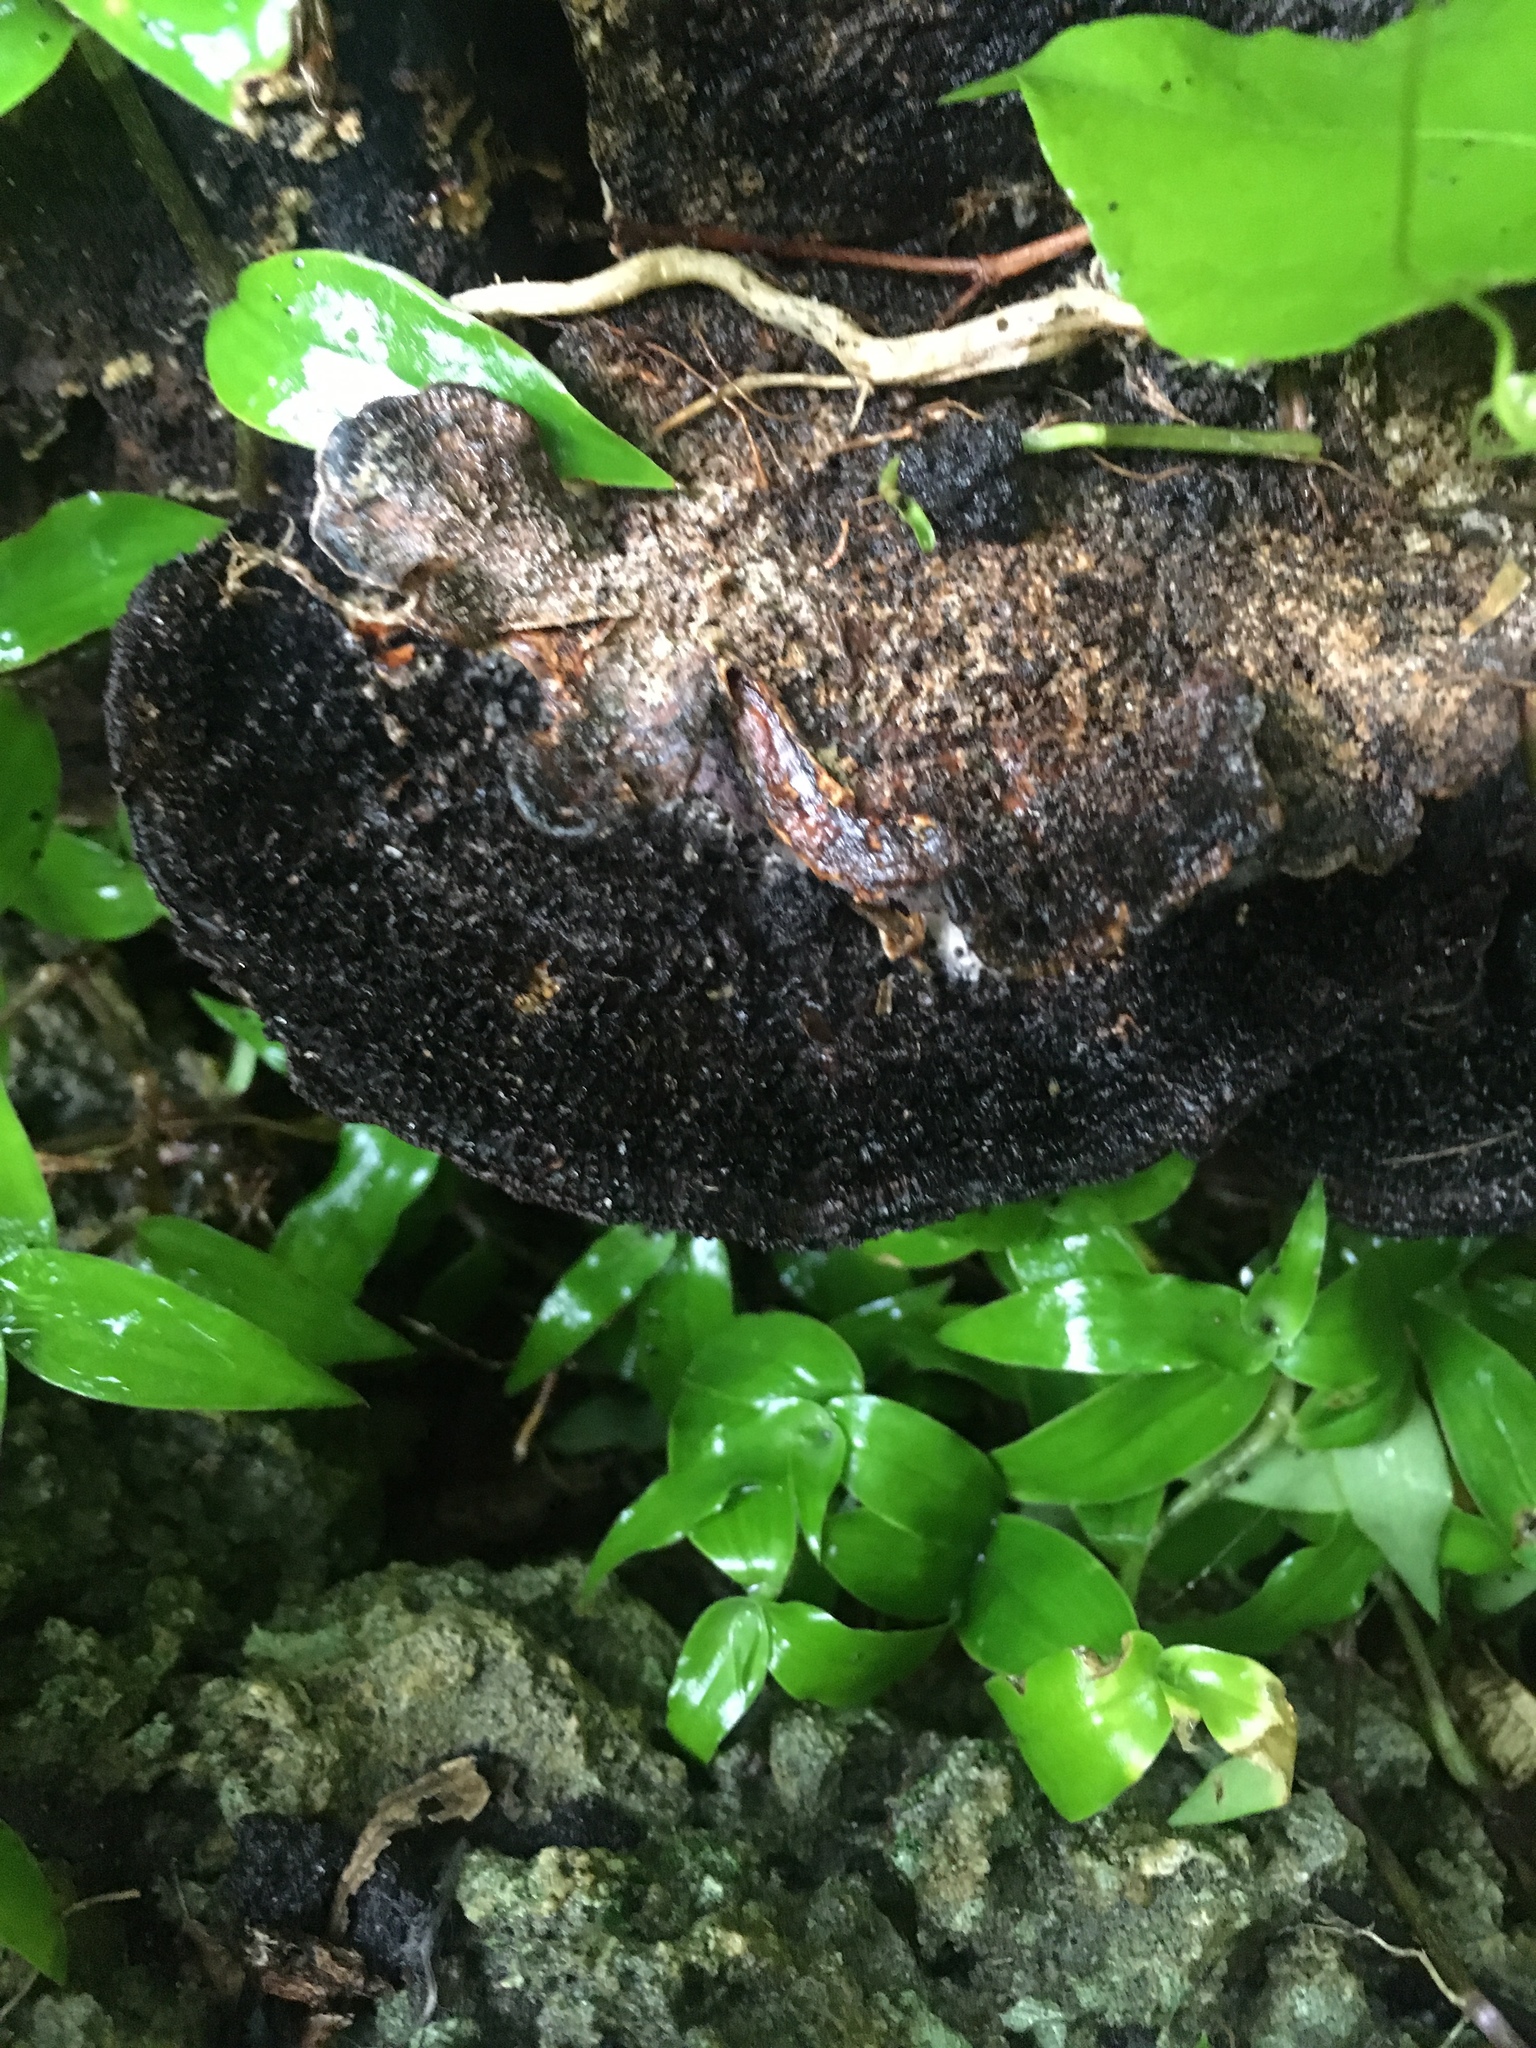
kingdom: Fungi
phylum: Basidiomycota
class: Agaricomycetes
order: Polyporales
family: Cerrenaceae
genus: Cerrena
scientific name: Cerrena hydnoides
